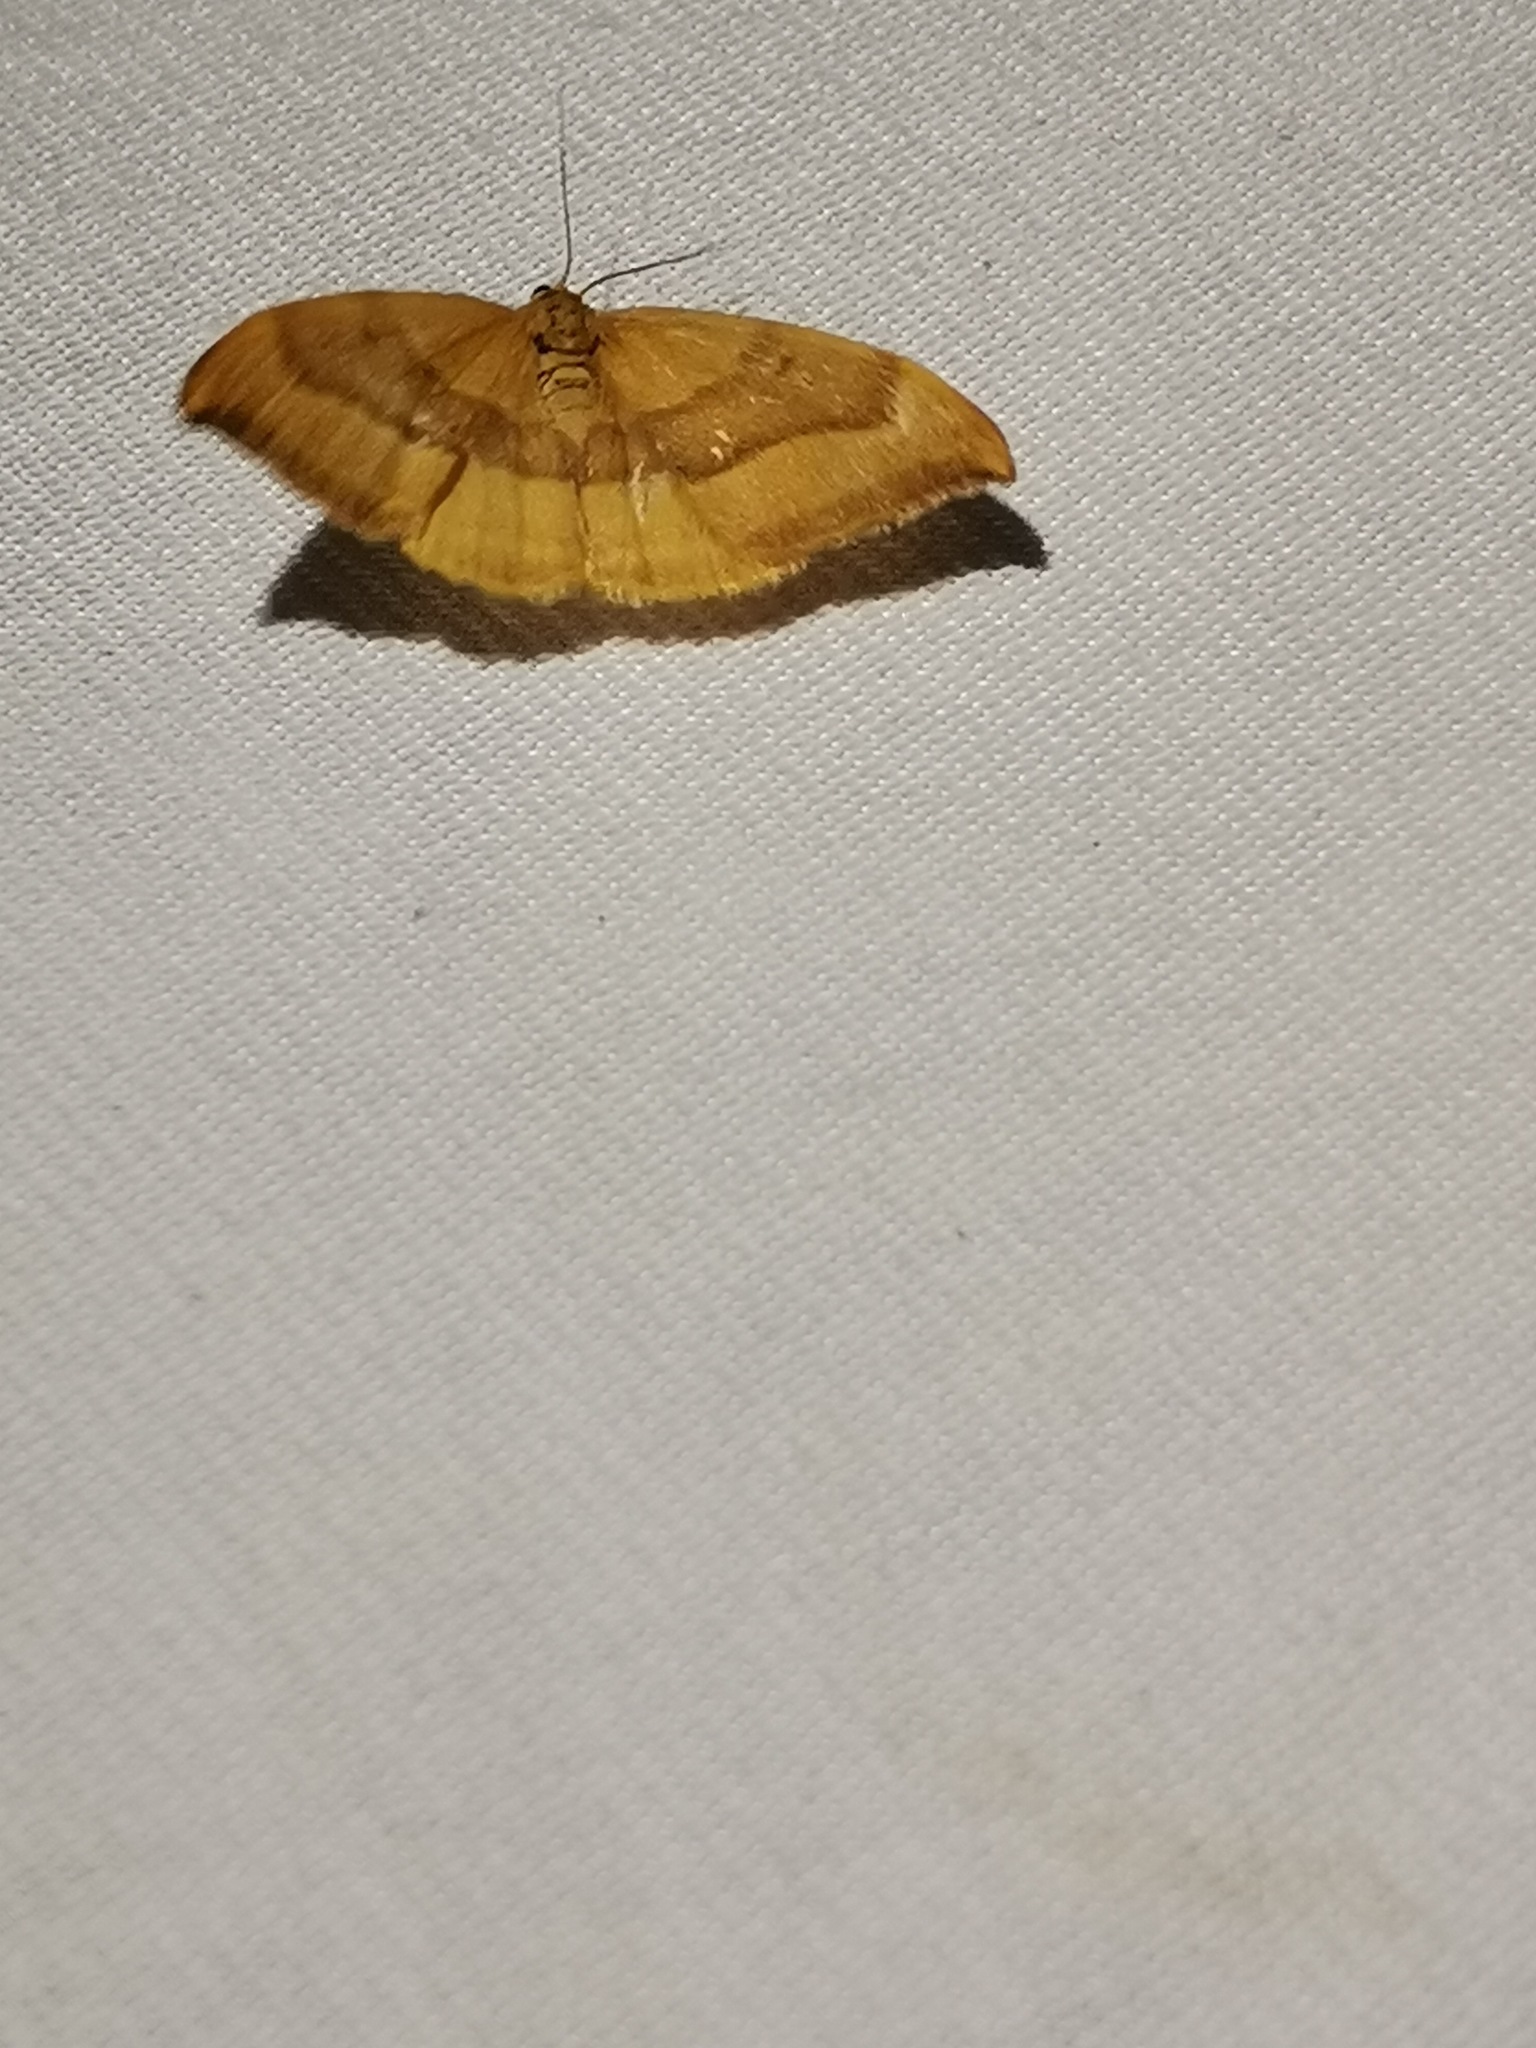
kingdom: Animalia
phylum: Arthropoda
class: Insecta
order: Lepidoptera
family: Drepanidae
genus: Watsonalla
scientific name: Watsonalla cultraria
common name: Barred hook-tip
